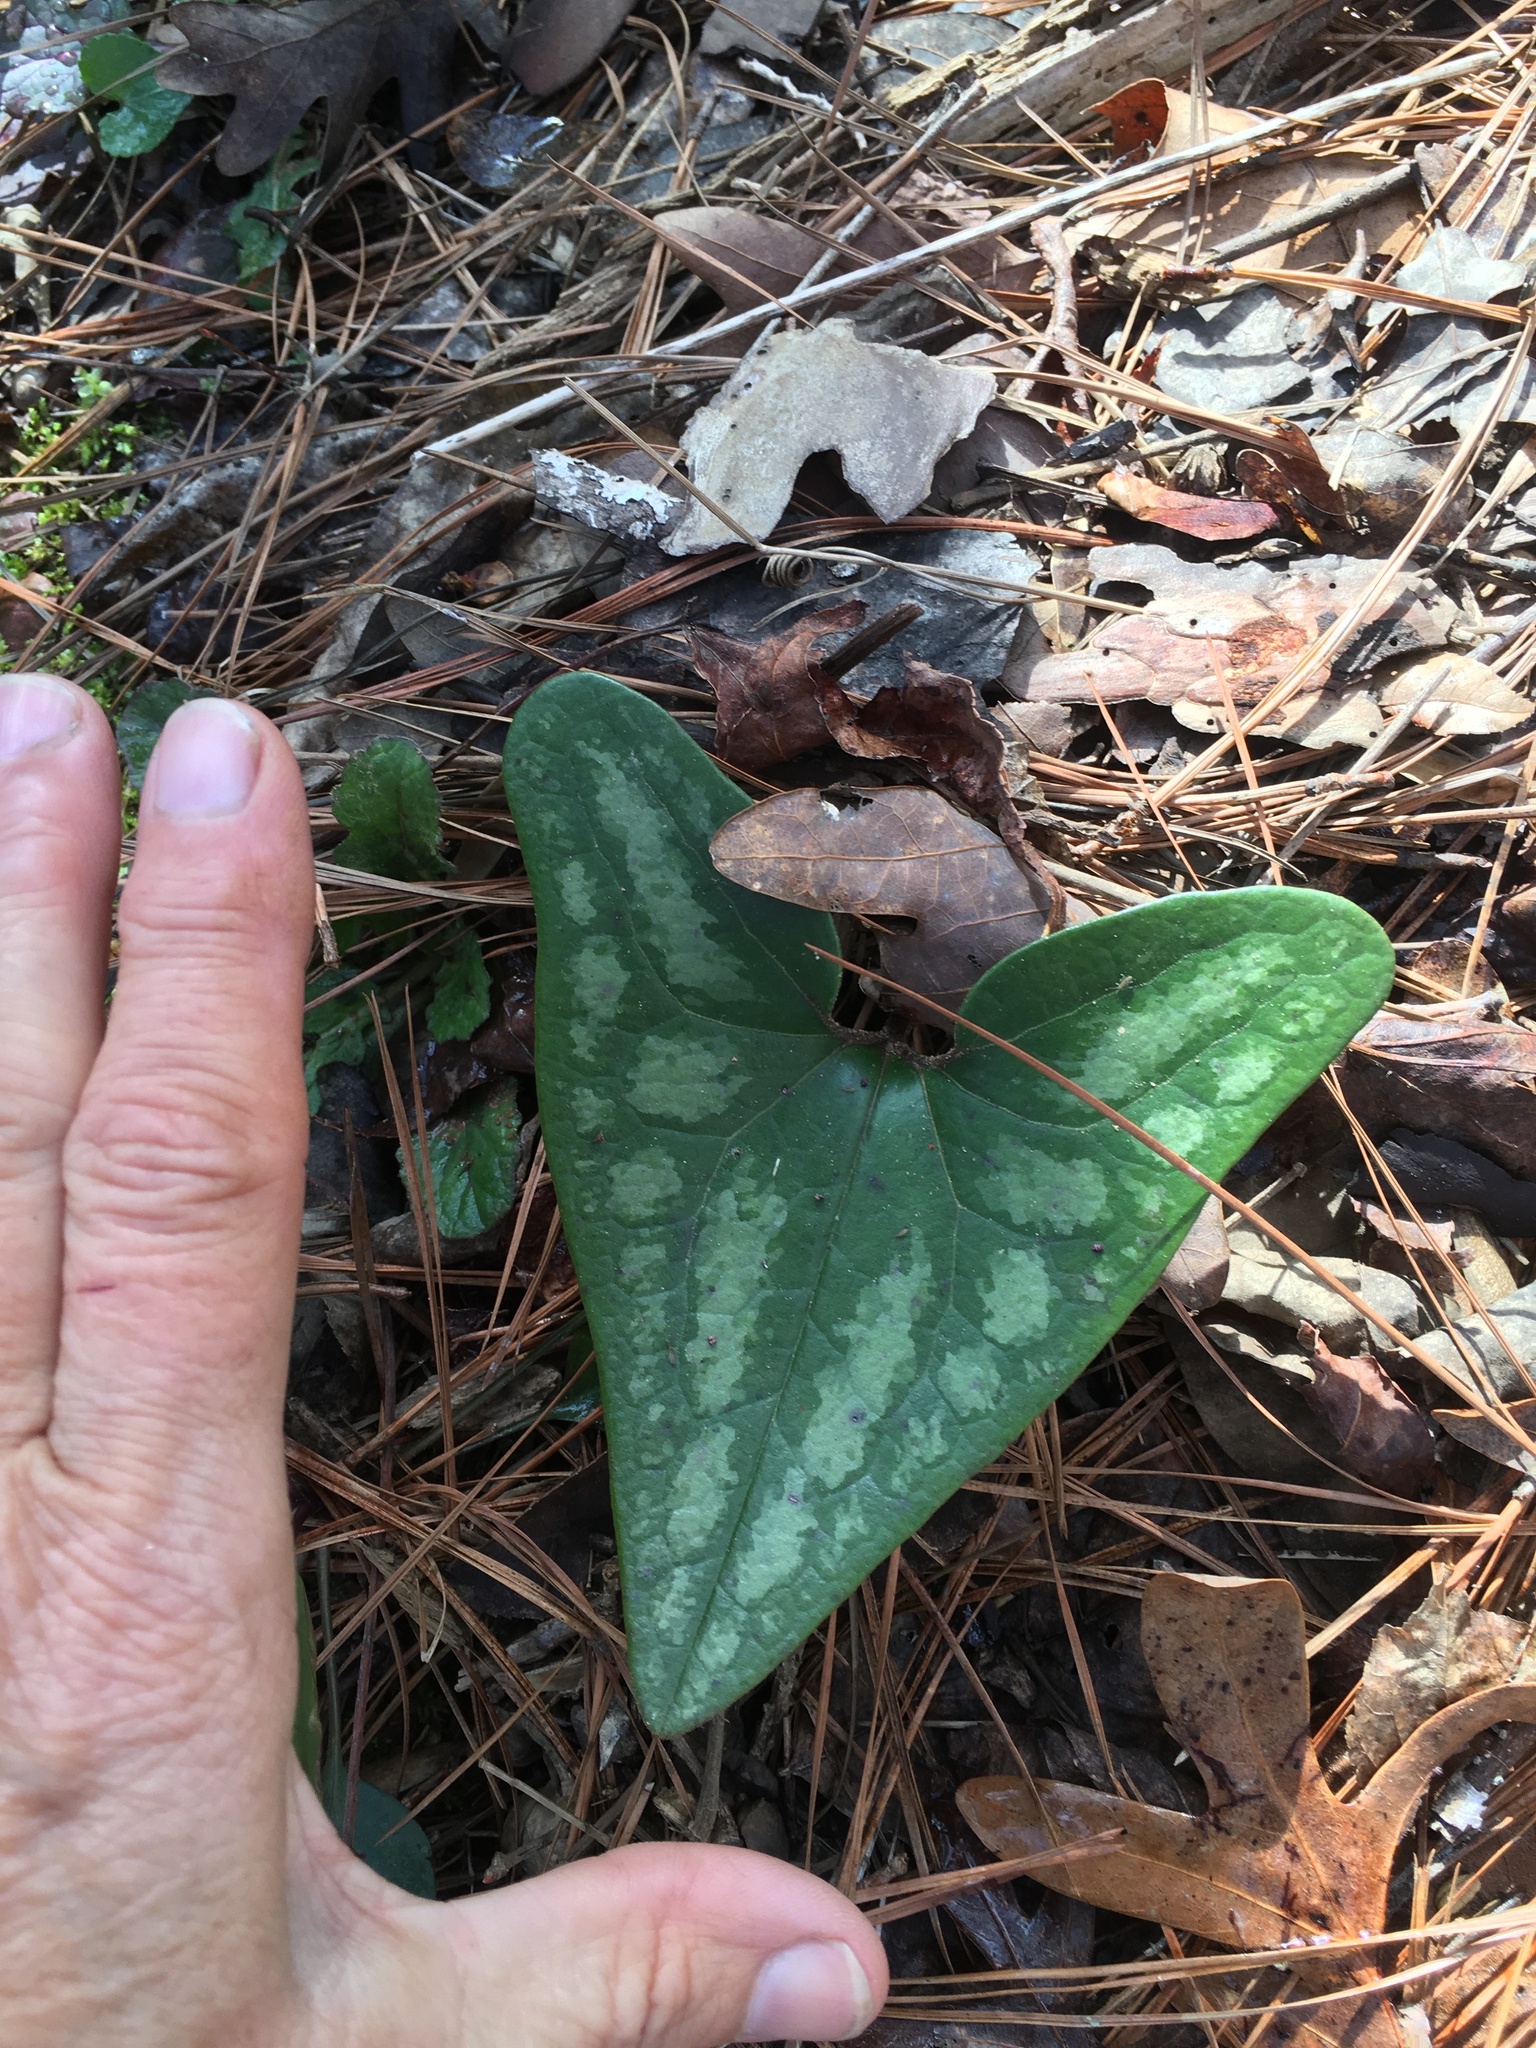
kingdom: Plantae
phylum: Tracheophyta
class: Magnoliopsida
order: Piperales
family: Aristolochiaceae
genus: Hexastylis
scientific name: Hexastylis arifolia
